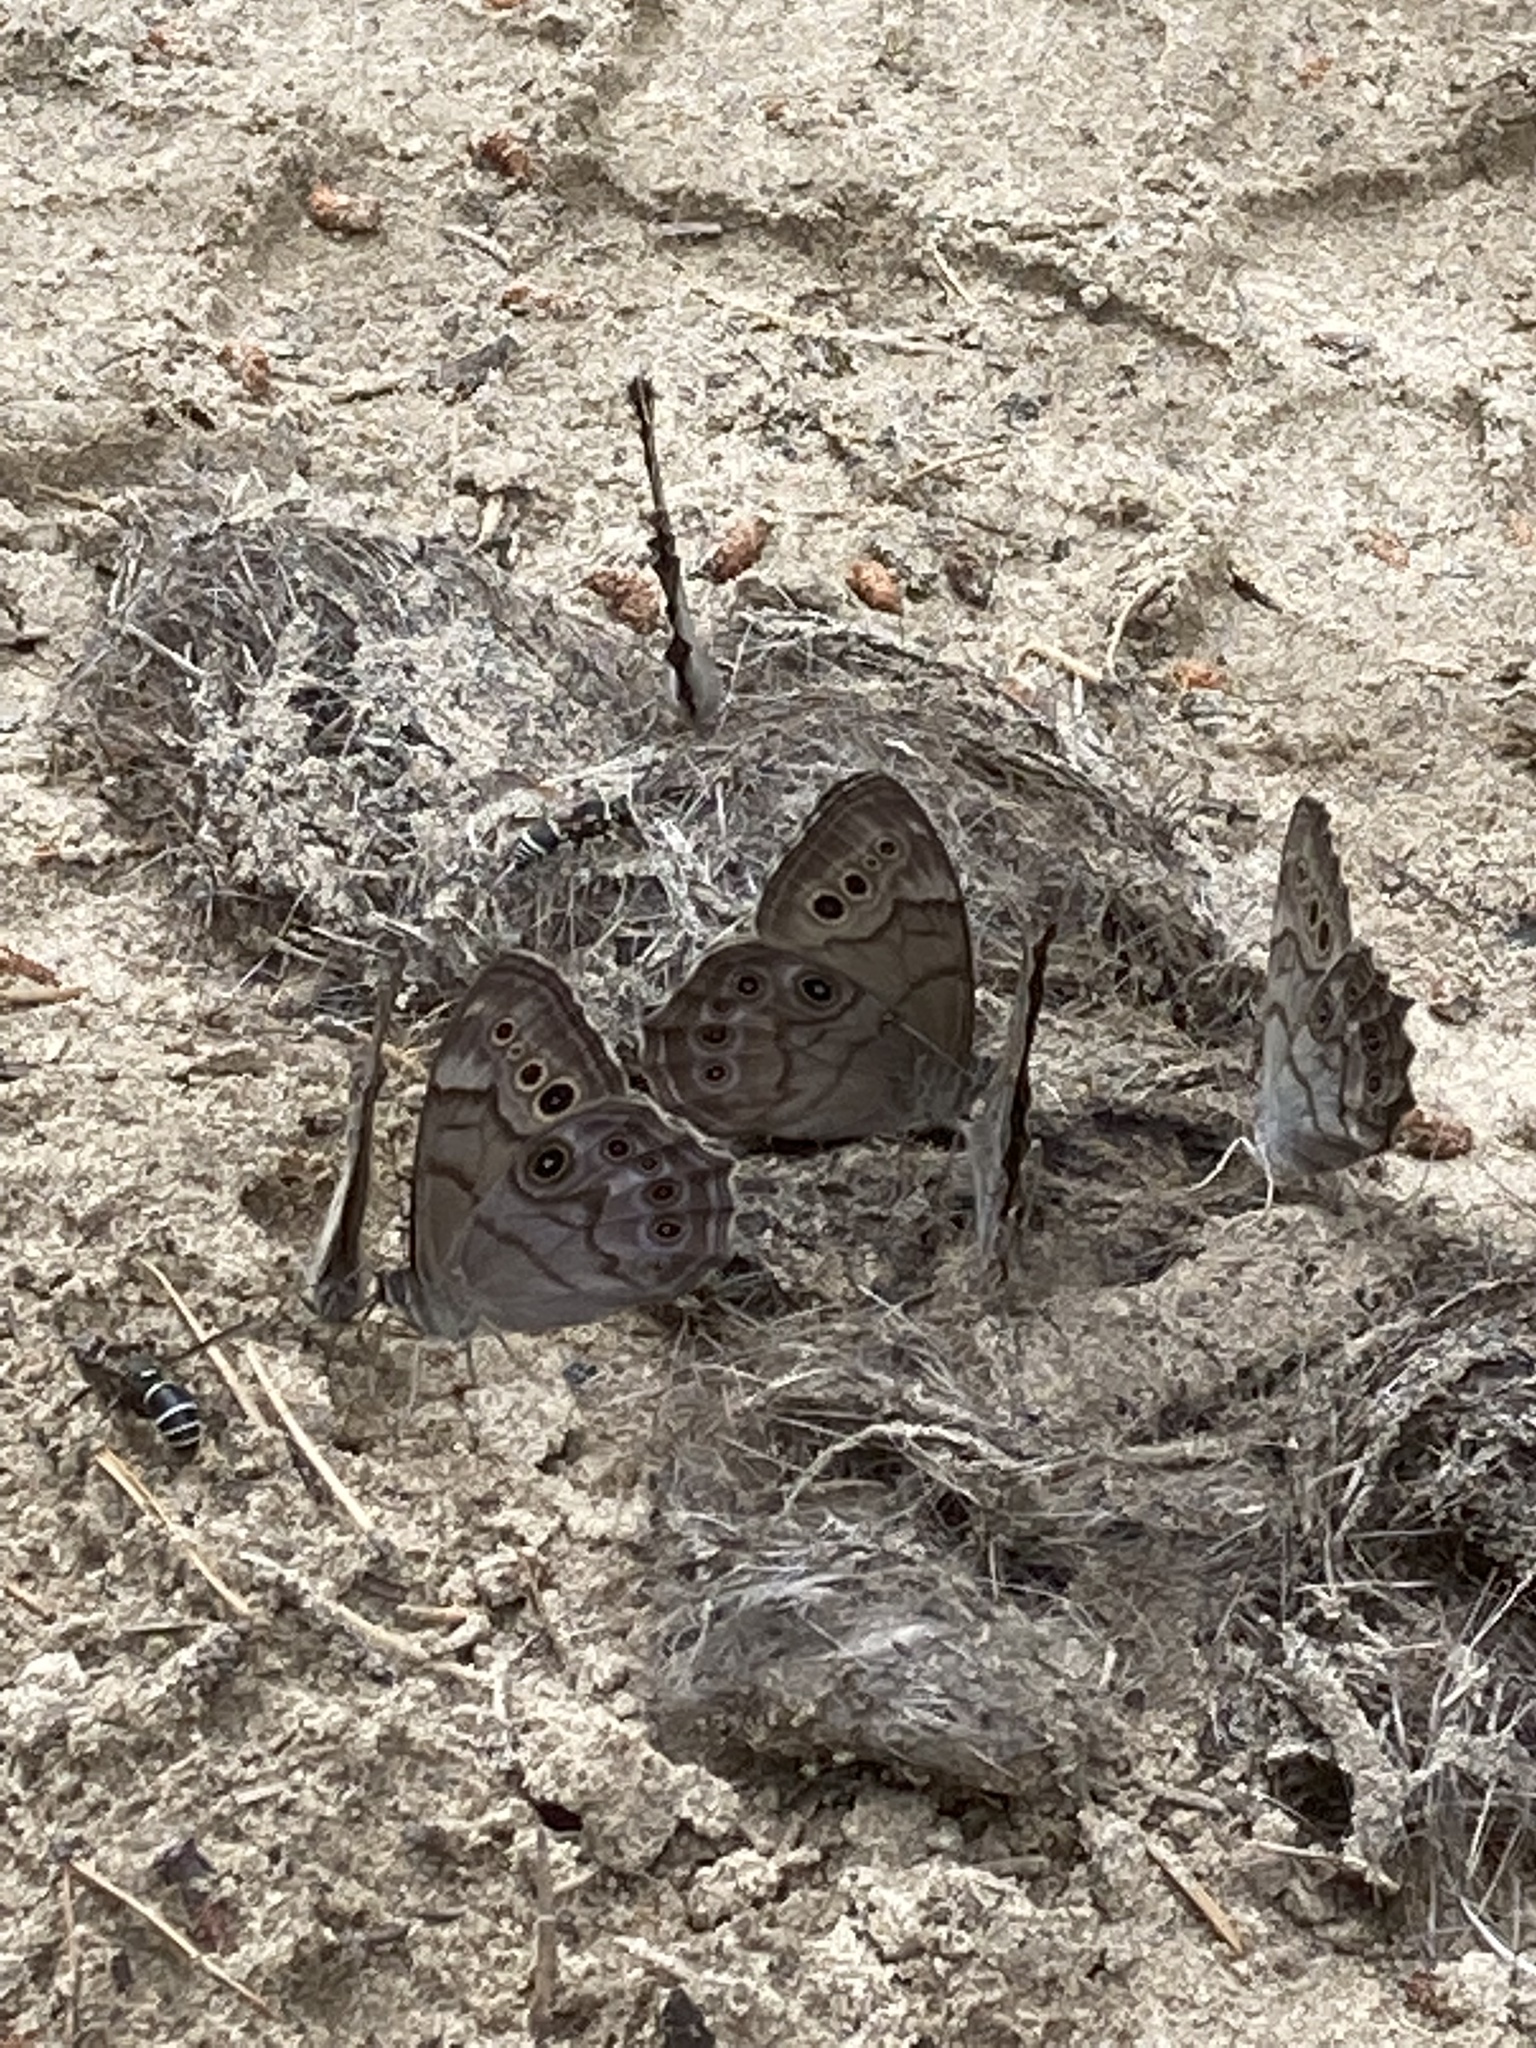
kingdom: Animalia
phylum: Arthropoda
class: Insecta
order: Lepidoptera
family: Nymphalidae
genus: Lethe
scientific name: Lethe anthedon
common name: Northern pearly-eye
